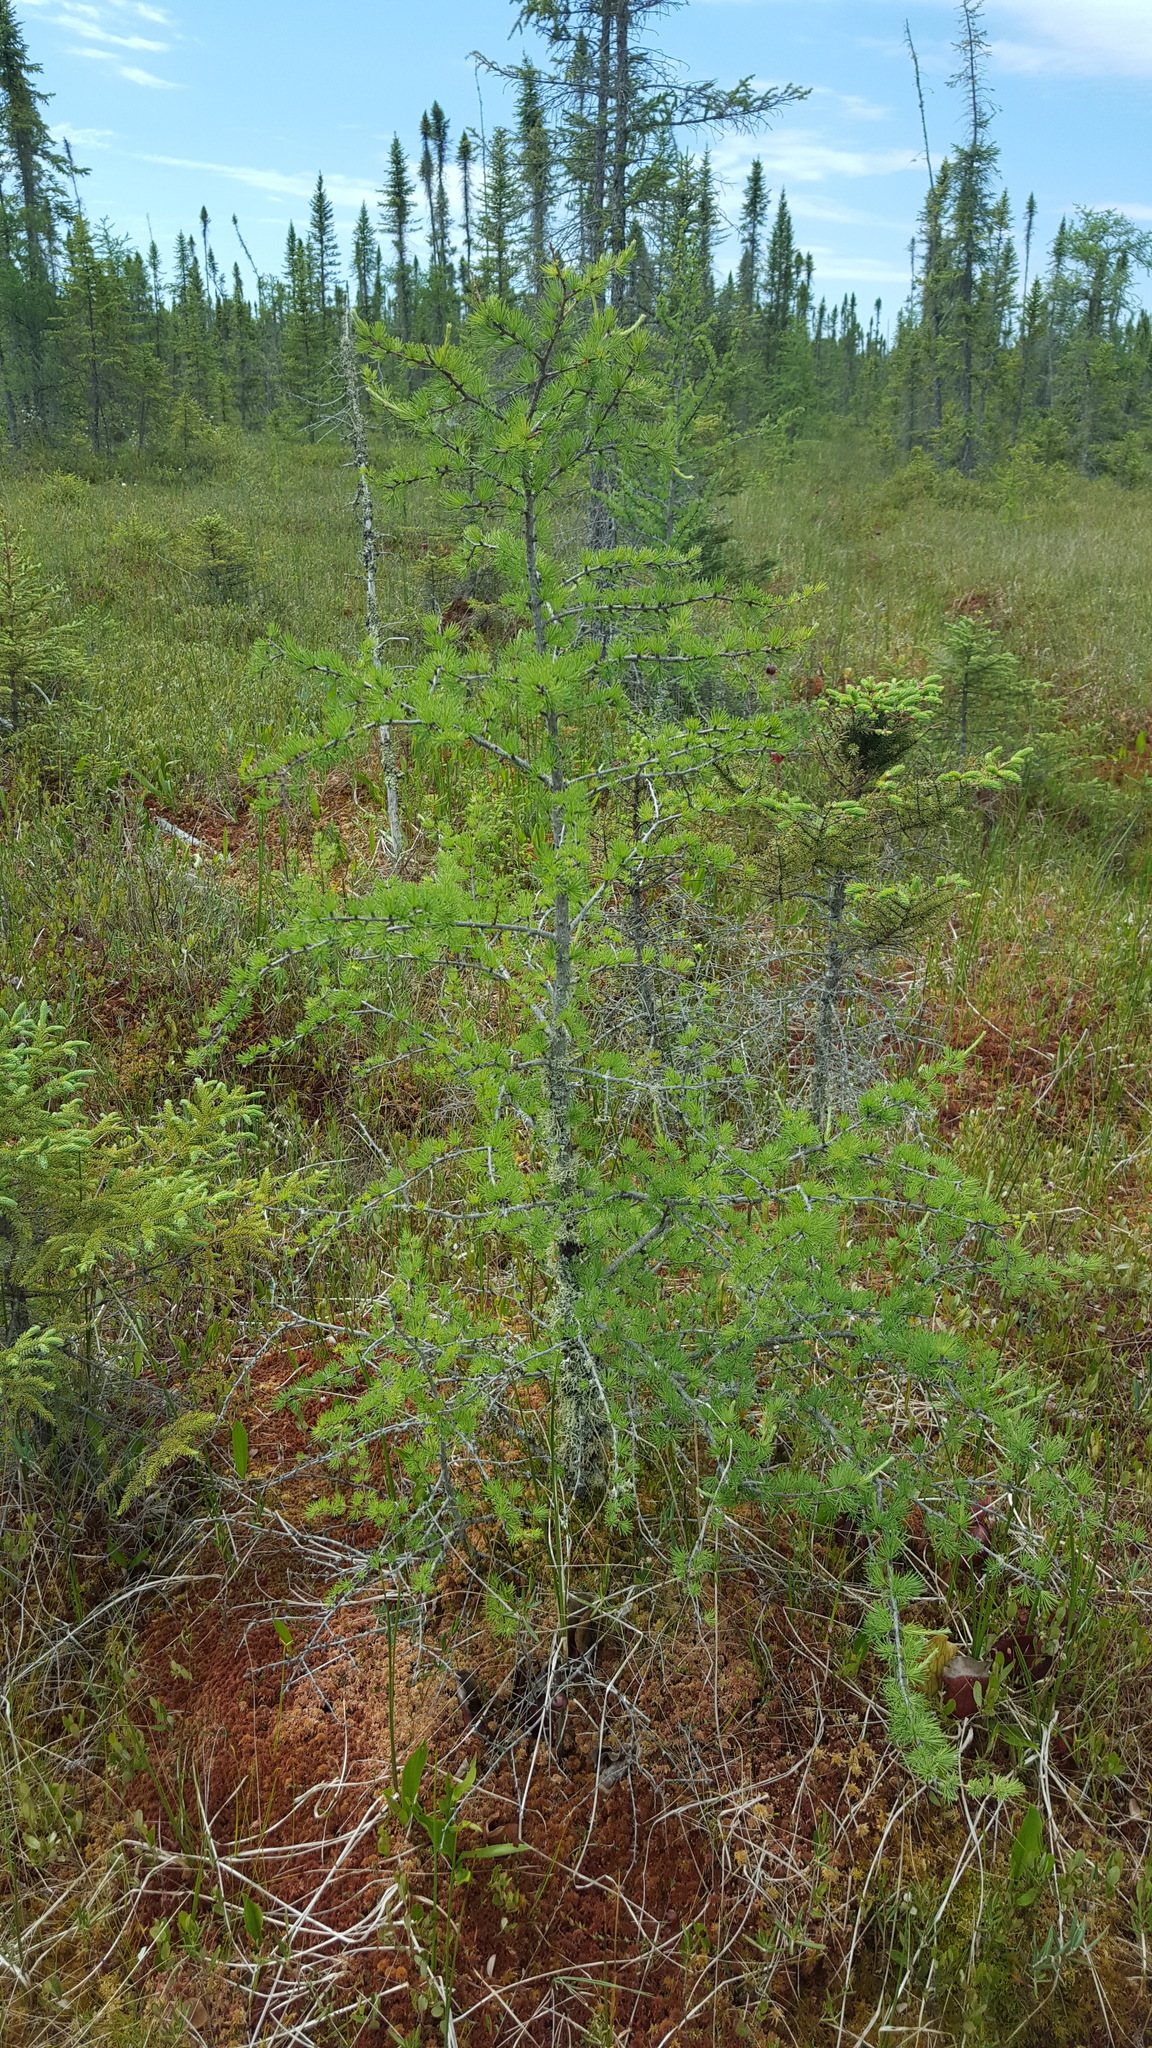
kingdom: Plantae
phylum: Tracheophyta
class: Pinopsida
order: Pinales
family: Pinaceae
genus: Larix
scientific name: Larix laricina
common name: American larch
